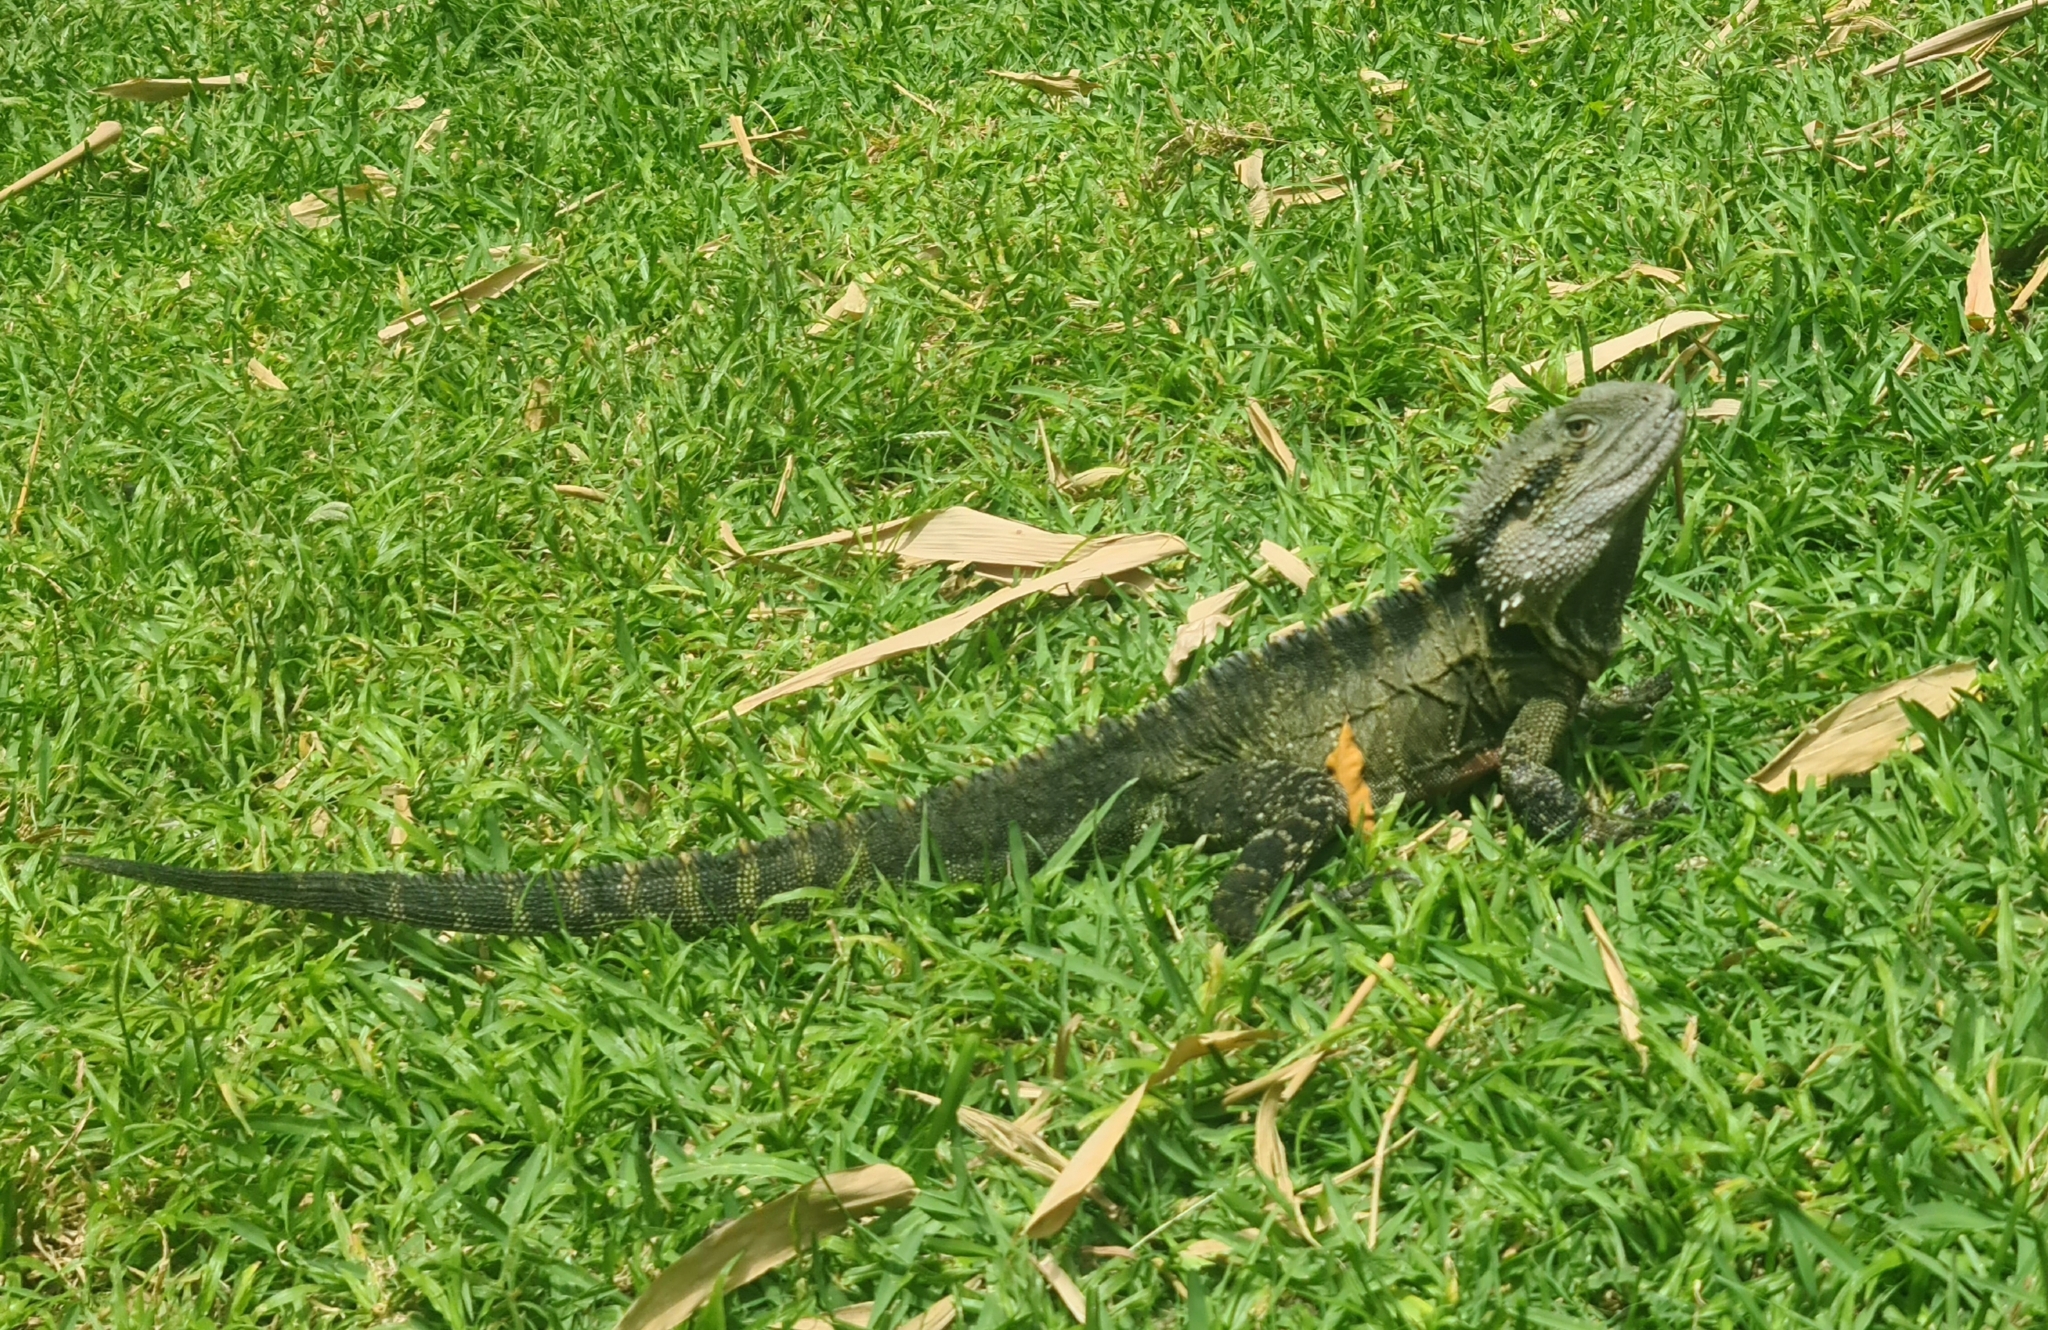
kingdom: Animalia
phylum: Chordata
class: Squamata
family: Agamidae
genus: Intellagama
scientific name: Intellagama lesueurii
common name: Eastern water dragon
